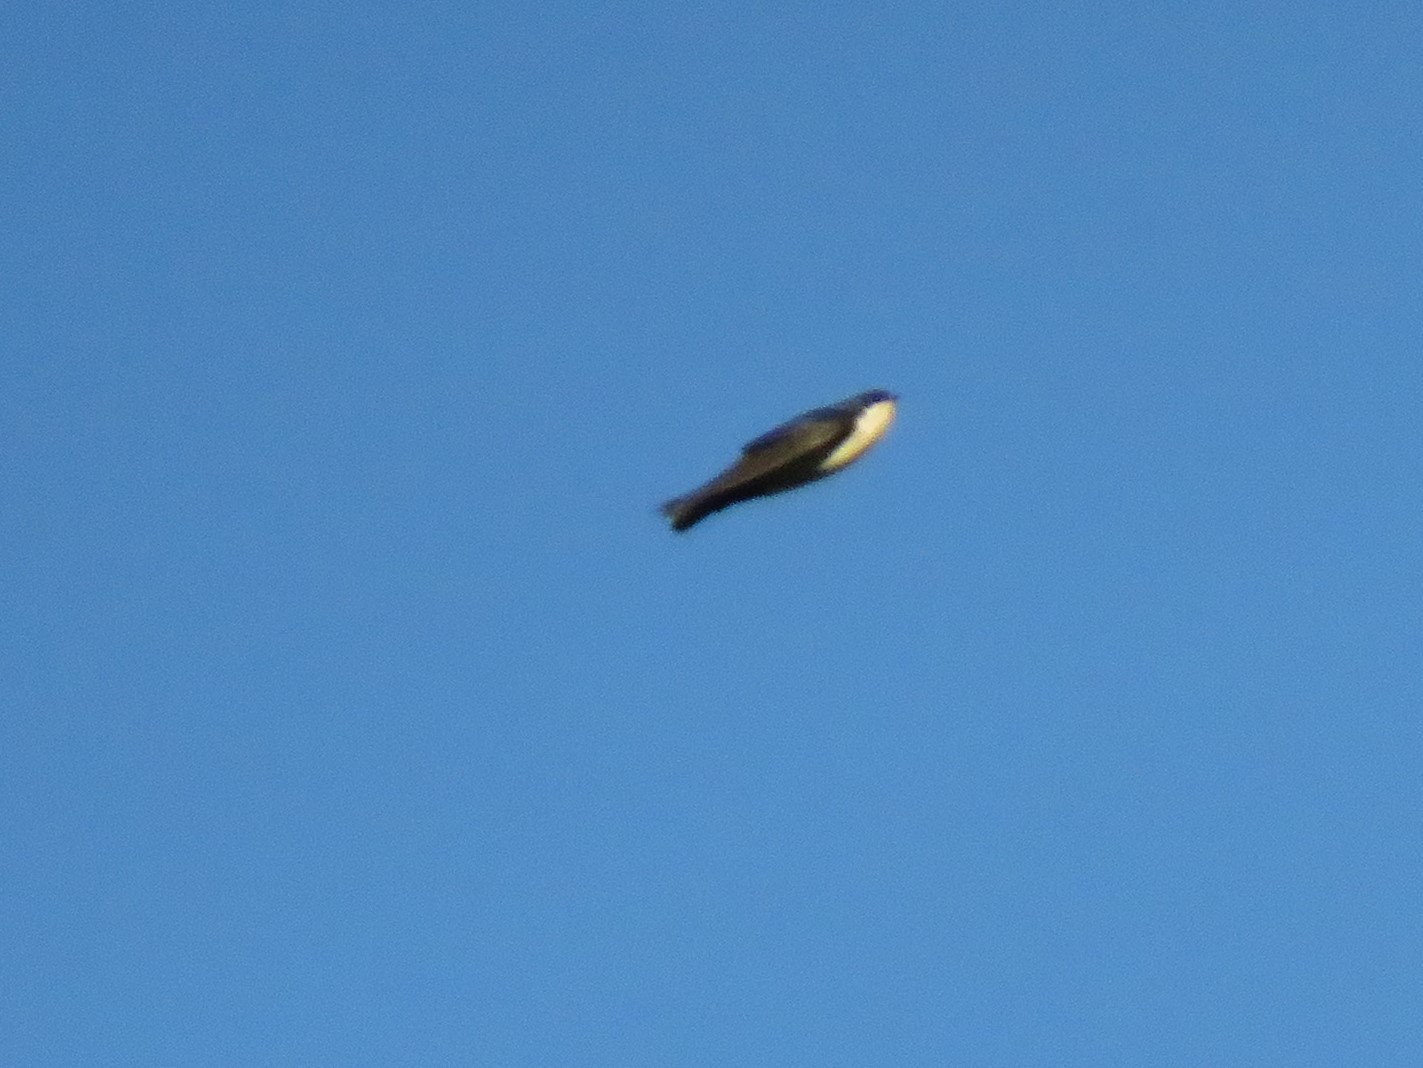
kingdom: Animalia
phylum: Chordata
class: Aves
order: Passeriformes
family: Hirundinidae
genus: Notiochelidon
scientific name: Notiochelidon cyanoleuca
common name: Blue-and-white swallow
